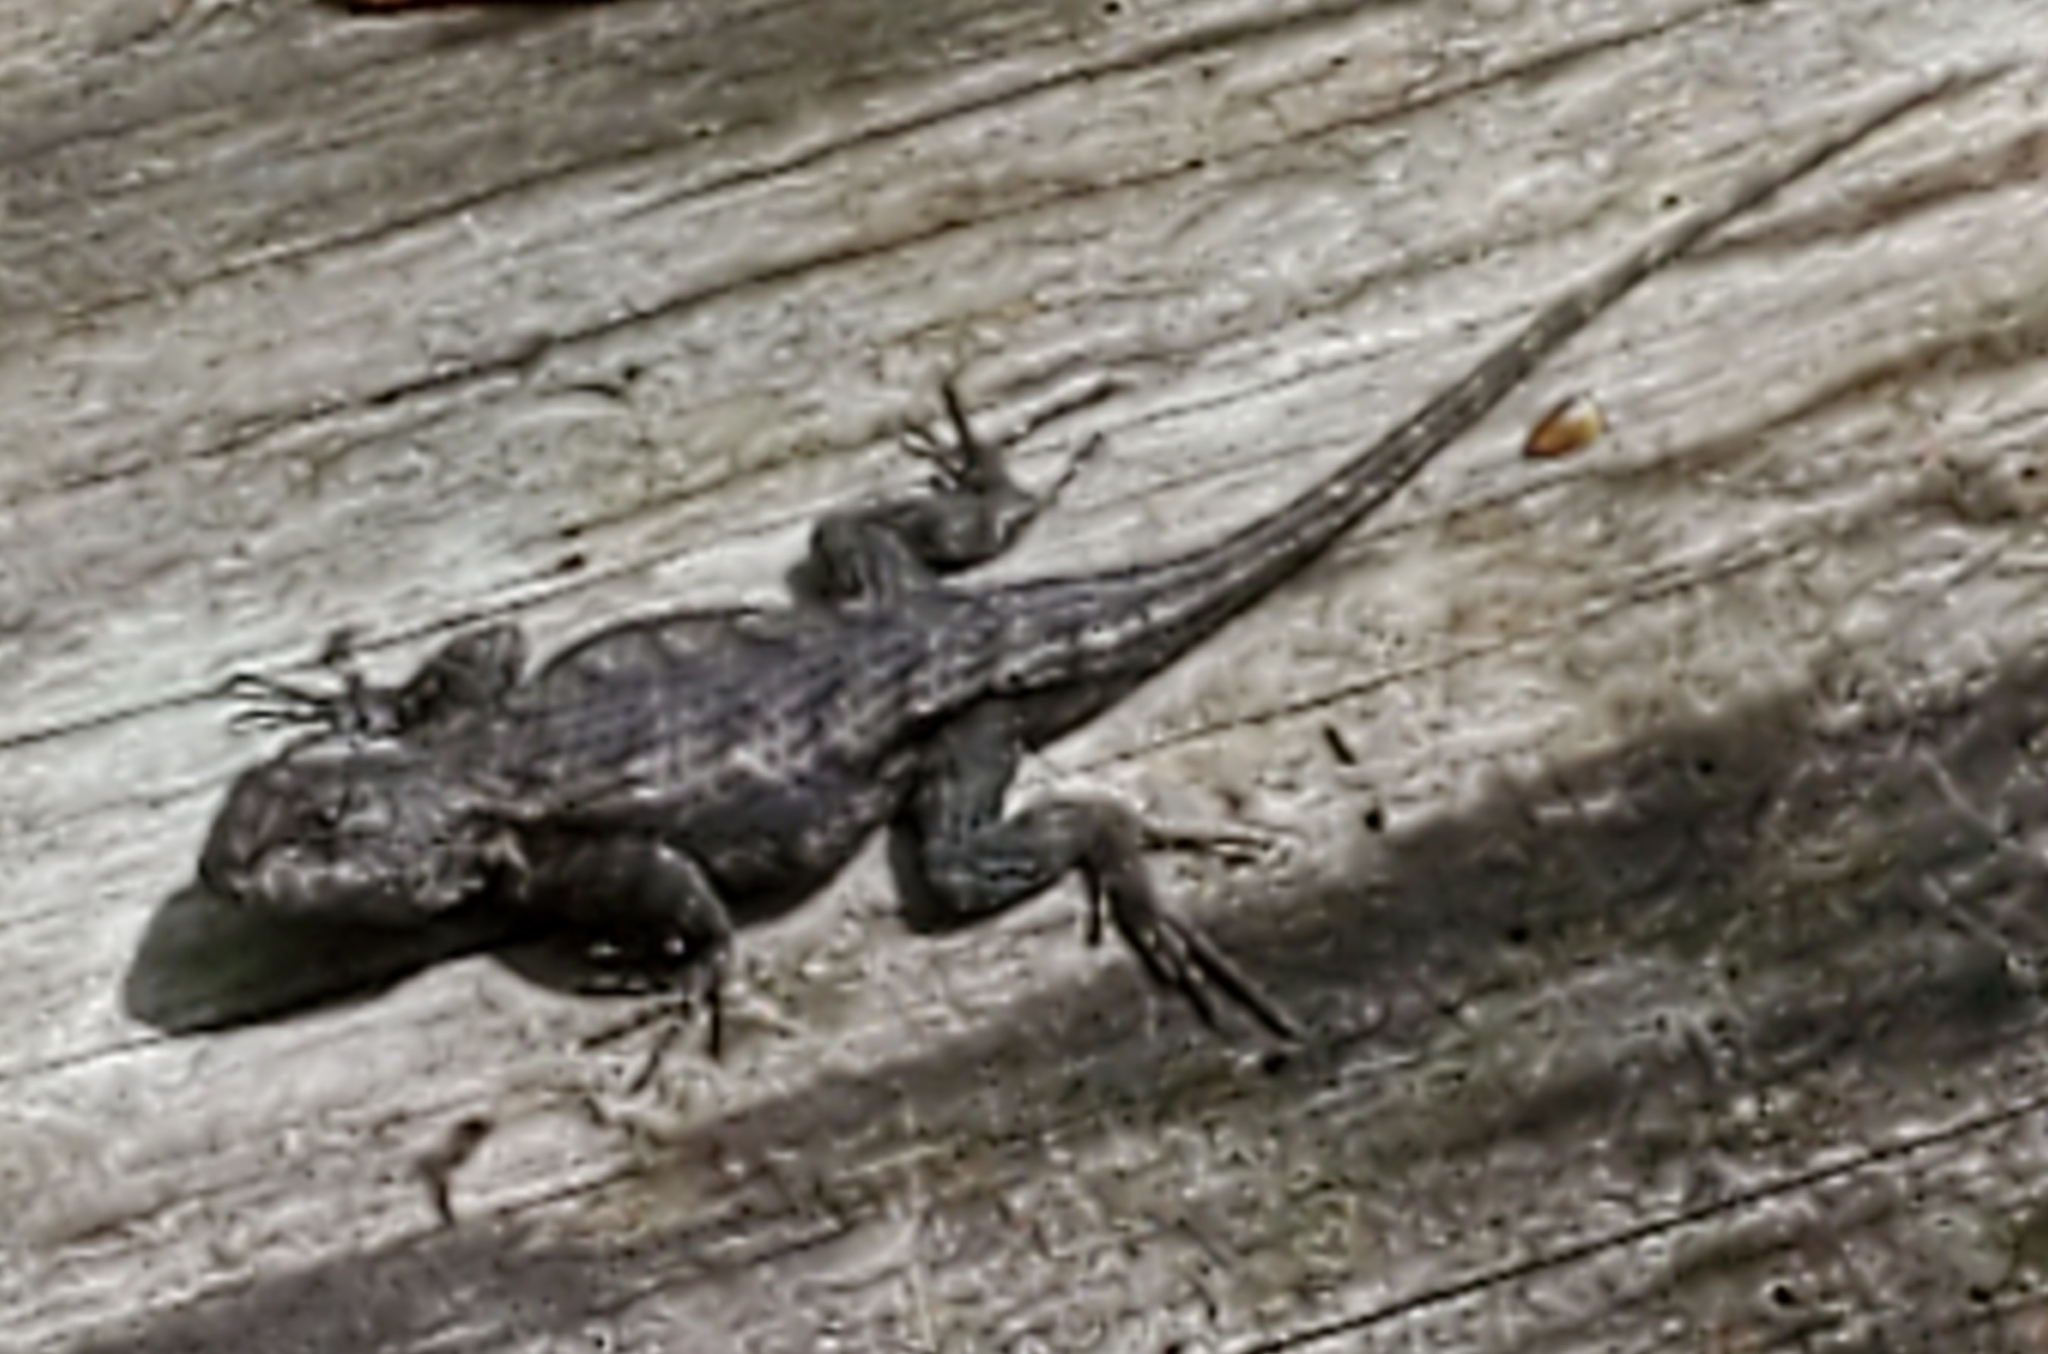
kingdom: Animalia
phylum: Chordata
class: Squamata
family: Phrynosomatidae
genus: Sceloporus
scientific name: Sceloporus undulatus
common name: Eastern fence lizard
